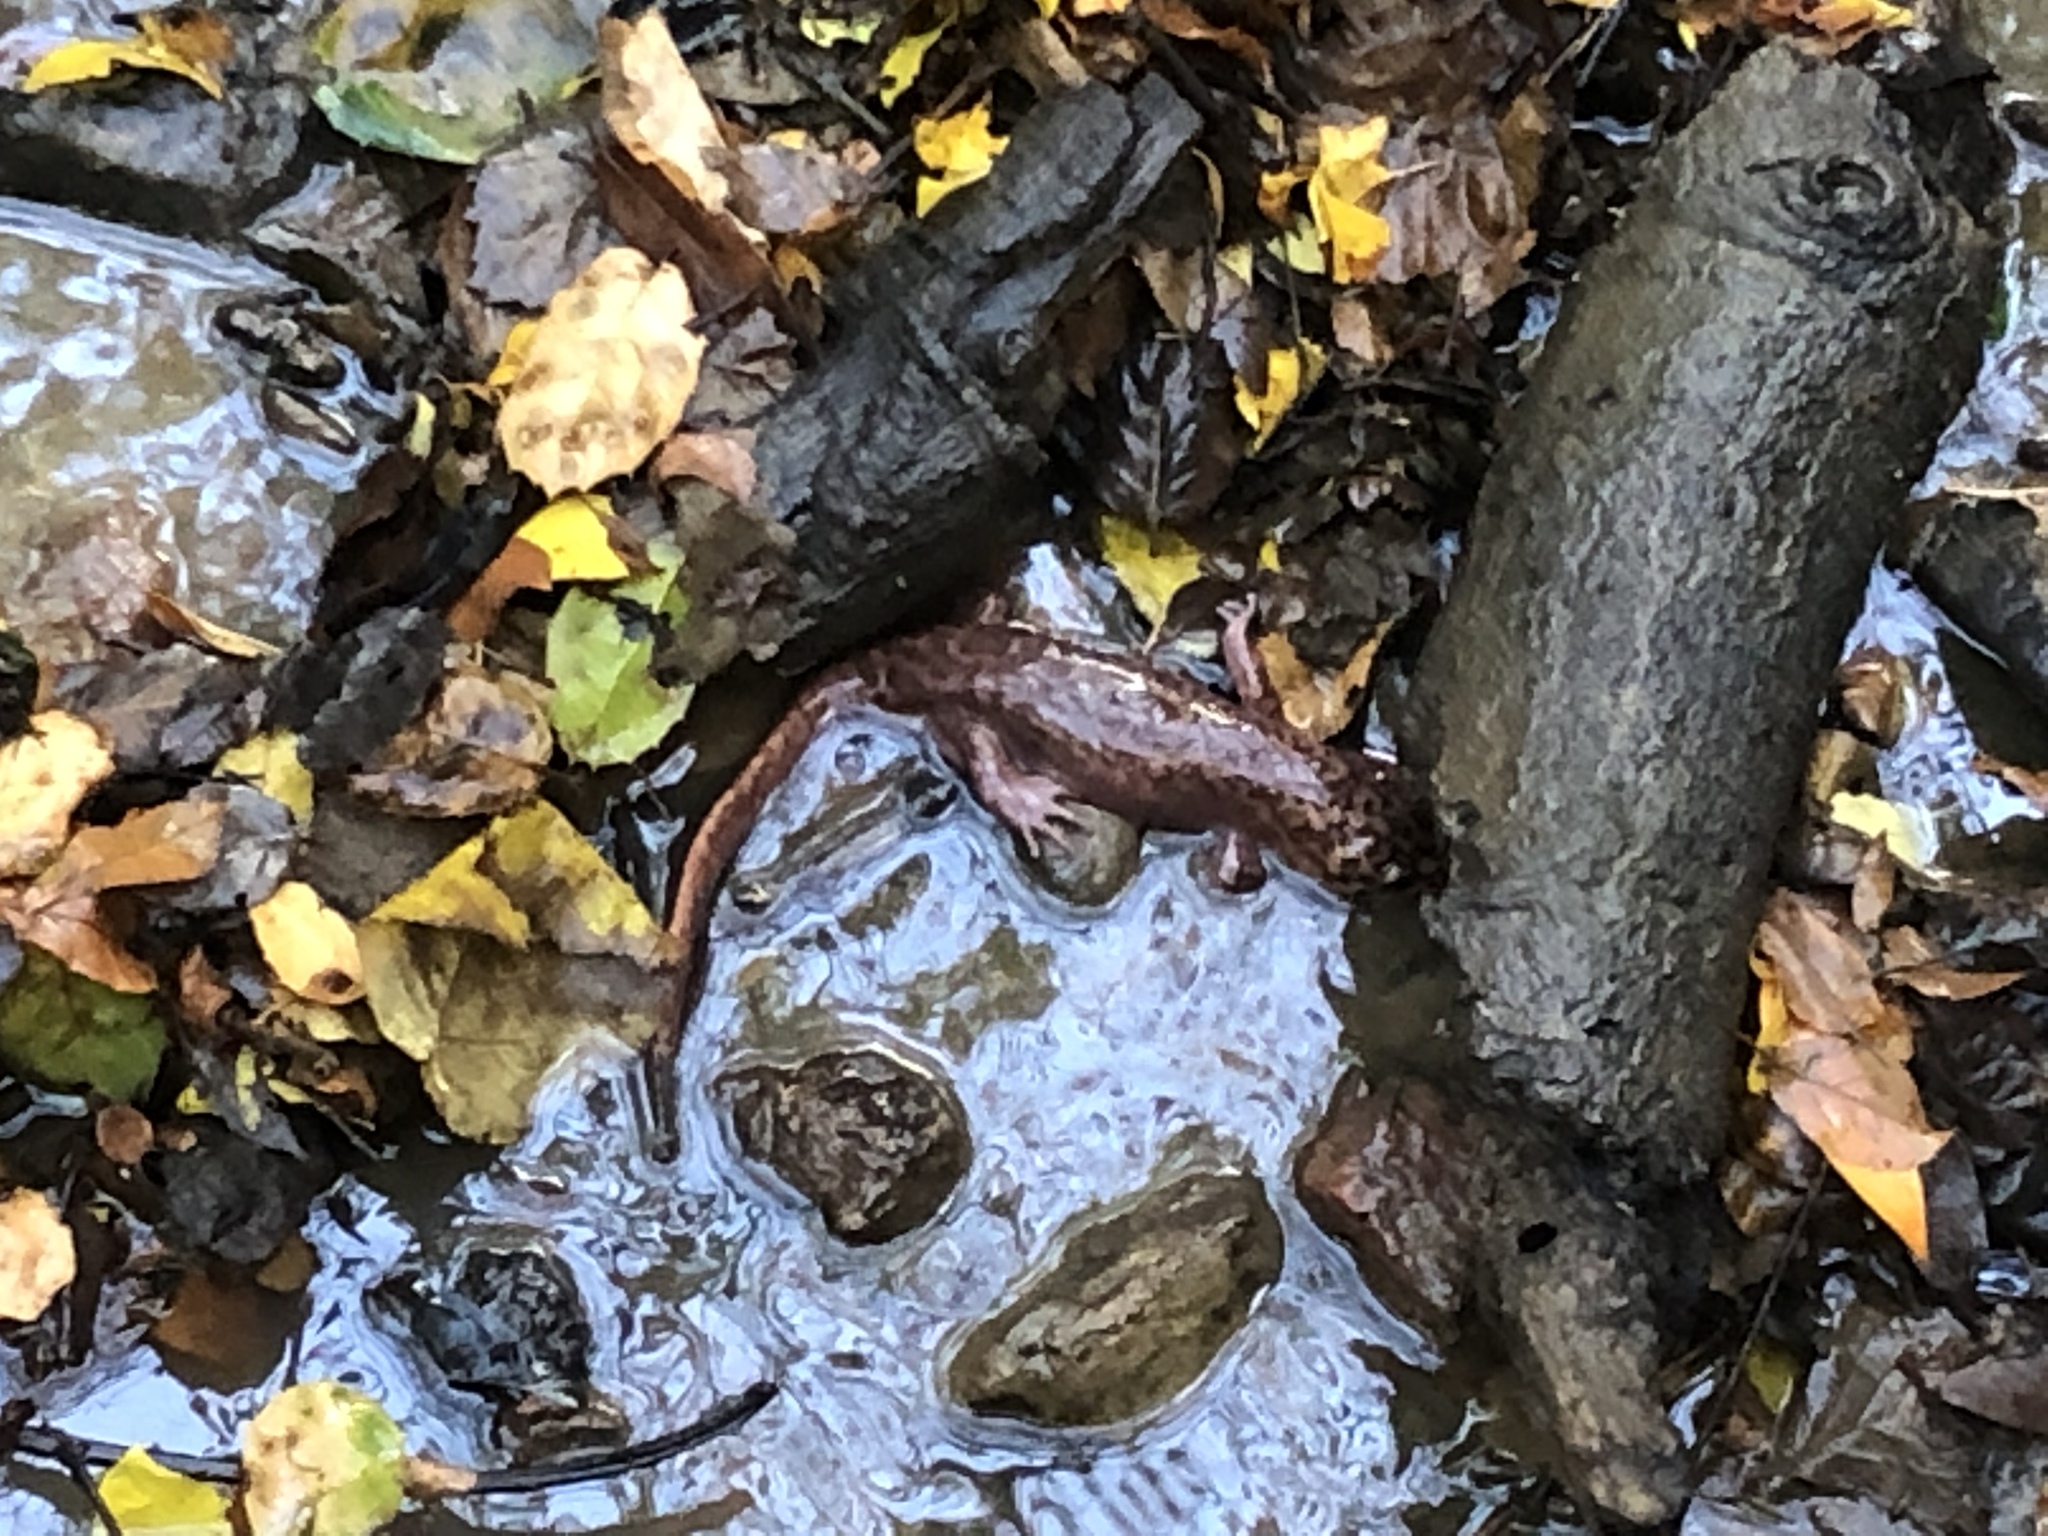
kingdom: Animalia
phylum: Chordata
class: Amphibia
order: Caudata
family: Ambystomatidae
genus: Dicamptodon
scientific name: Dicamptodon ensatus
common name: California giant salamander
